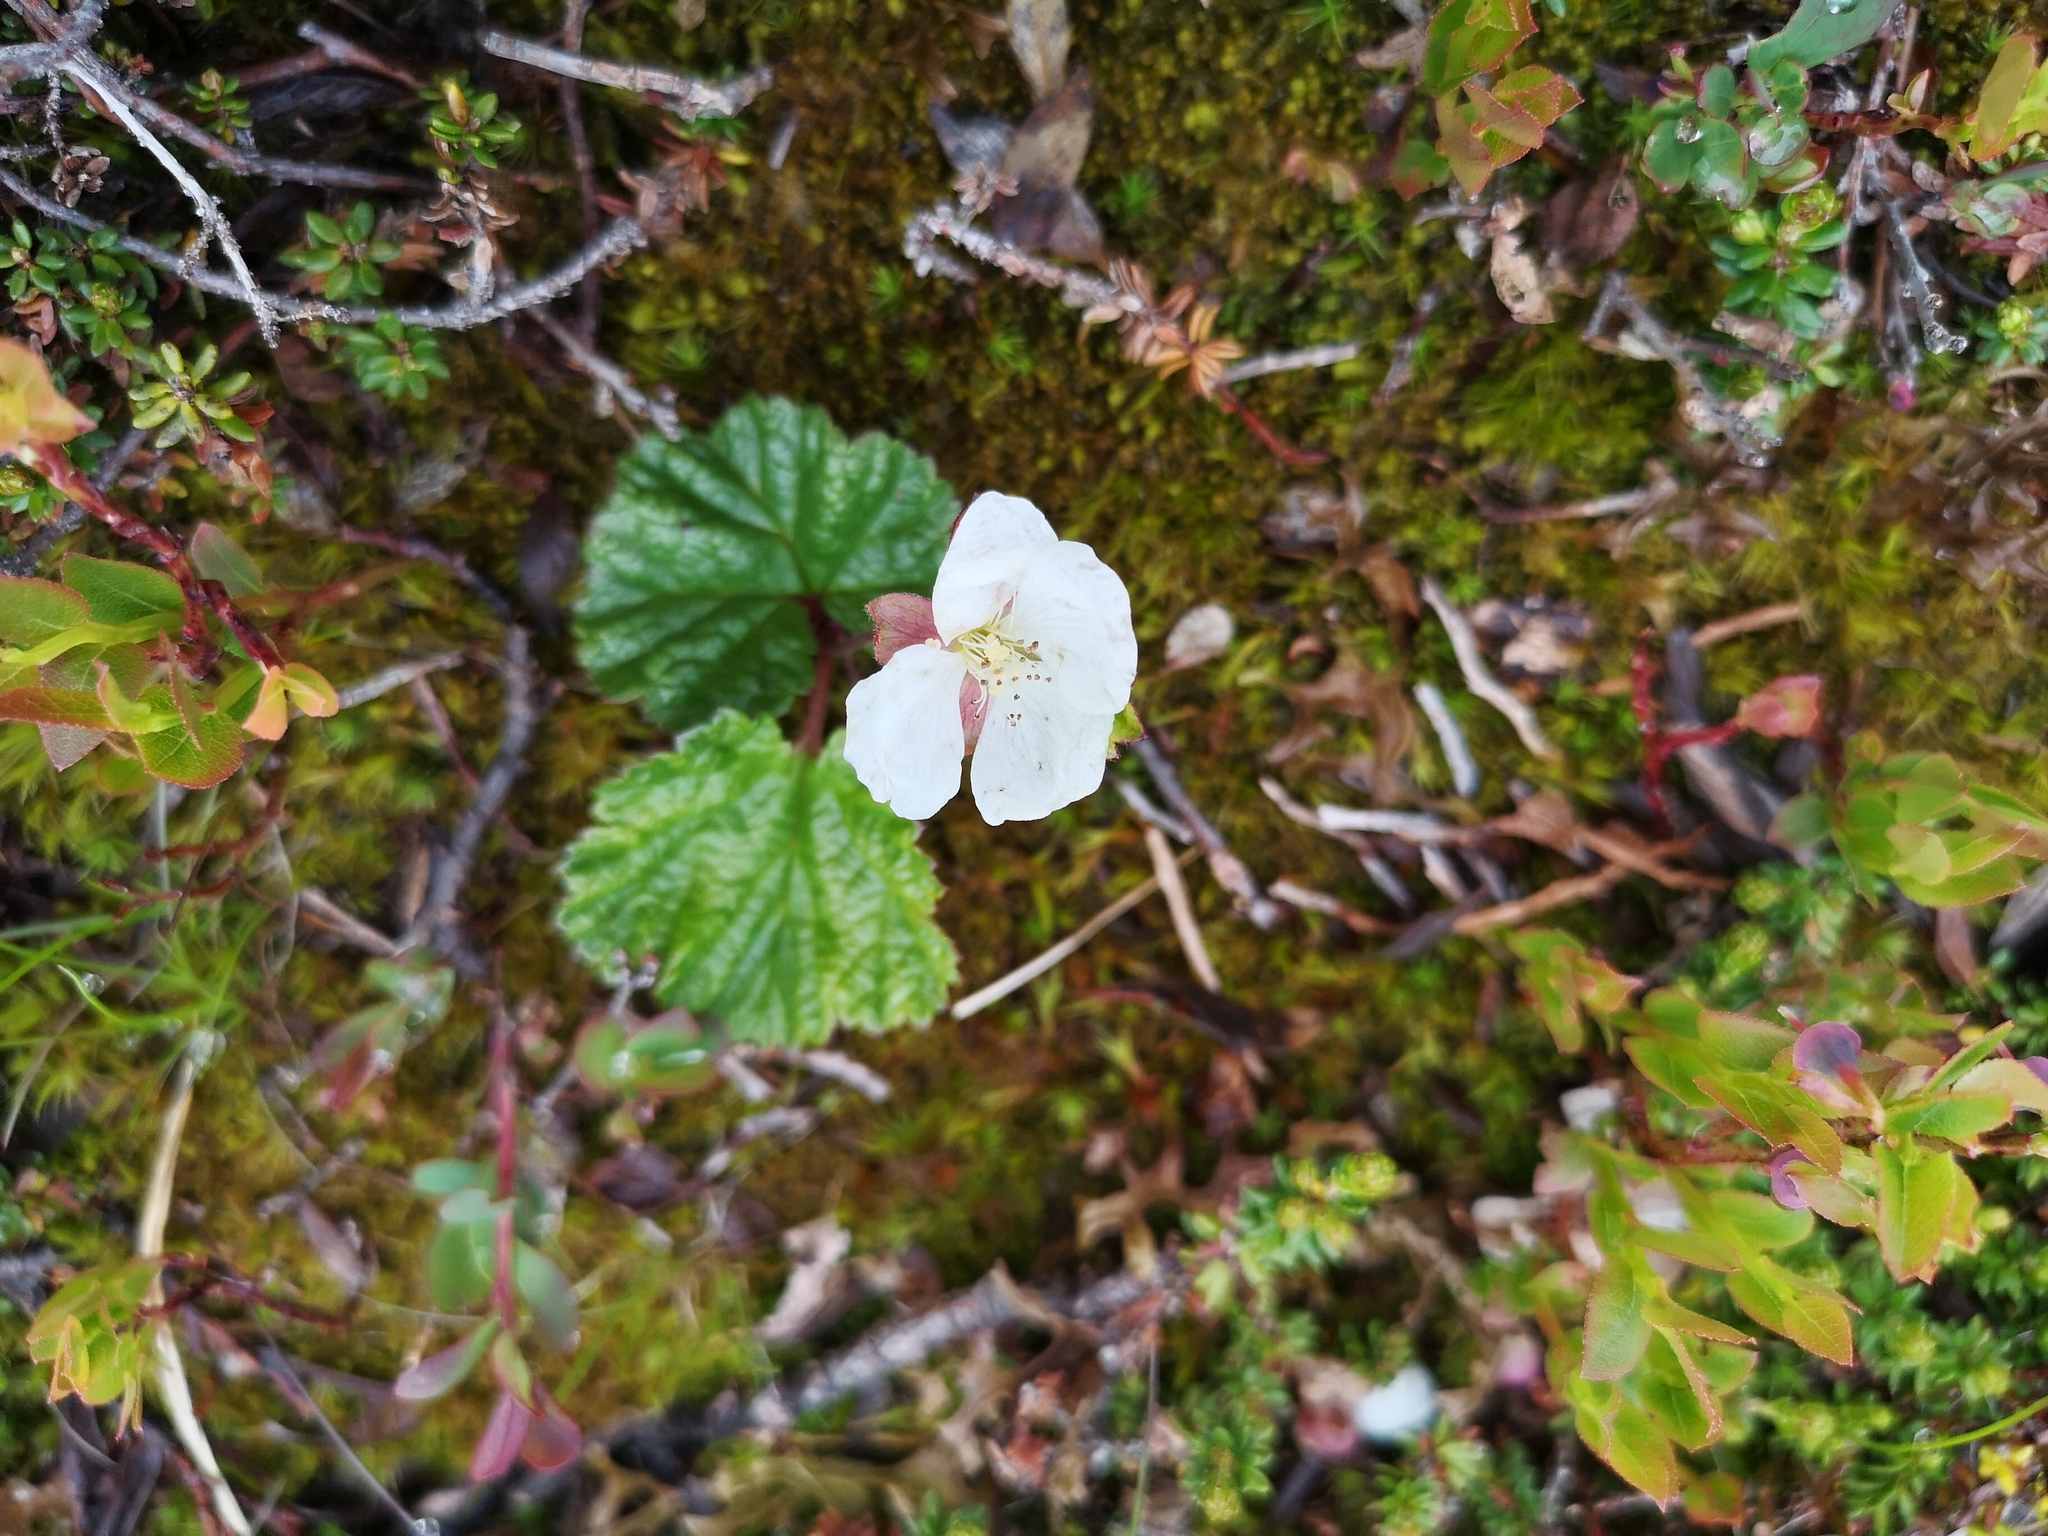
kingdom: Plantae
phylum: Tracheophyta
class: Magnoliopsida
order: Rosales
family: Rosaceae
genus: Rubus
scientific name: Rubus chamaemorus
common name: Cloudberry
